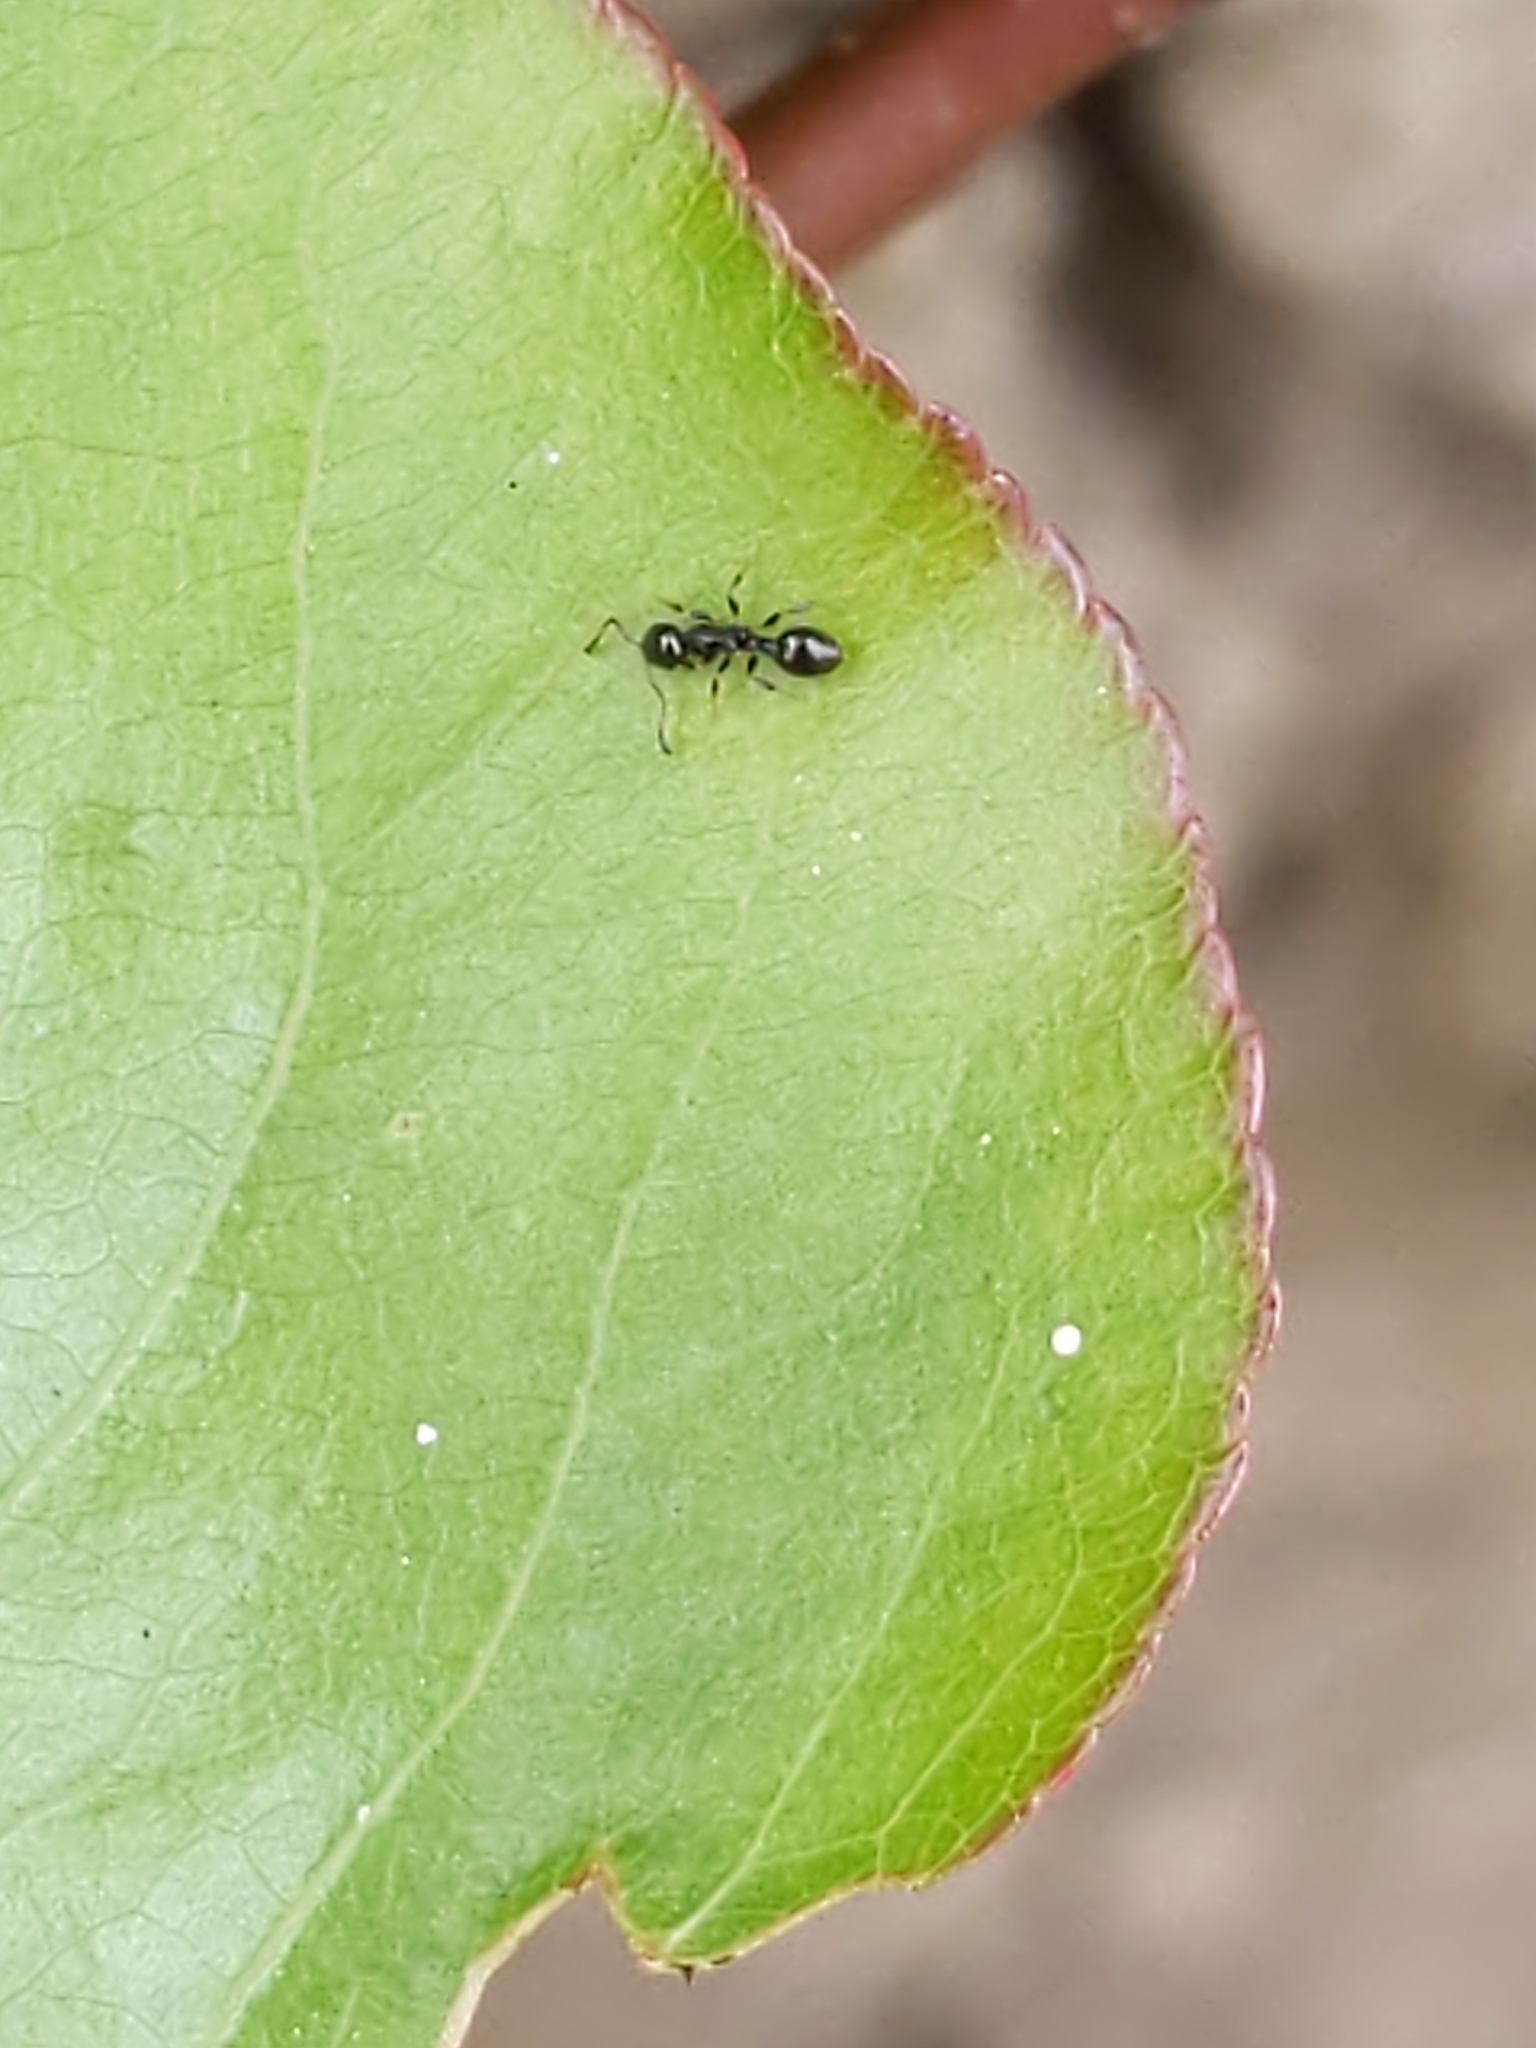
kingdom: Animalia
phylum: Arthropoda
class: Insecta
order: Hymenoptera
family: Formicidae
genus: Temnothorax
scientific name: Temnothorax
